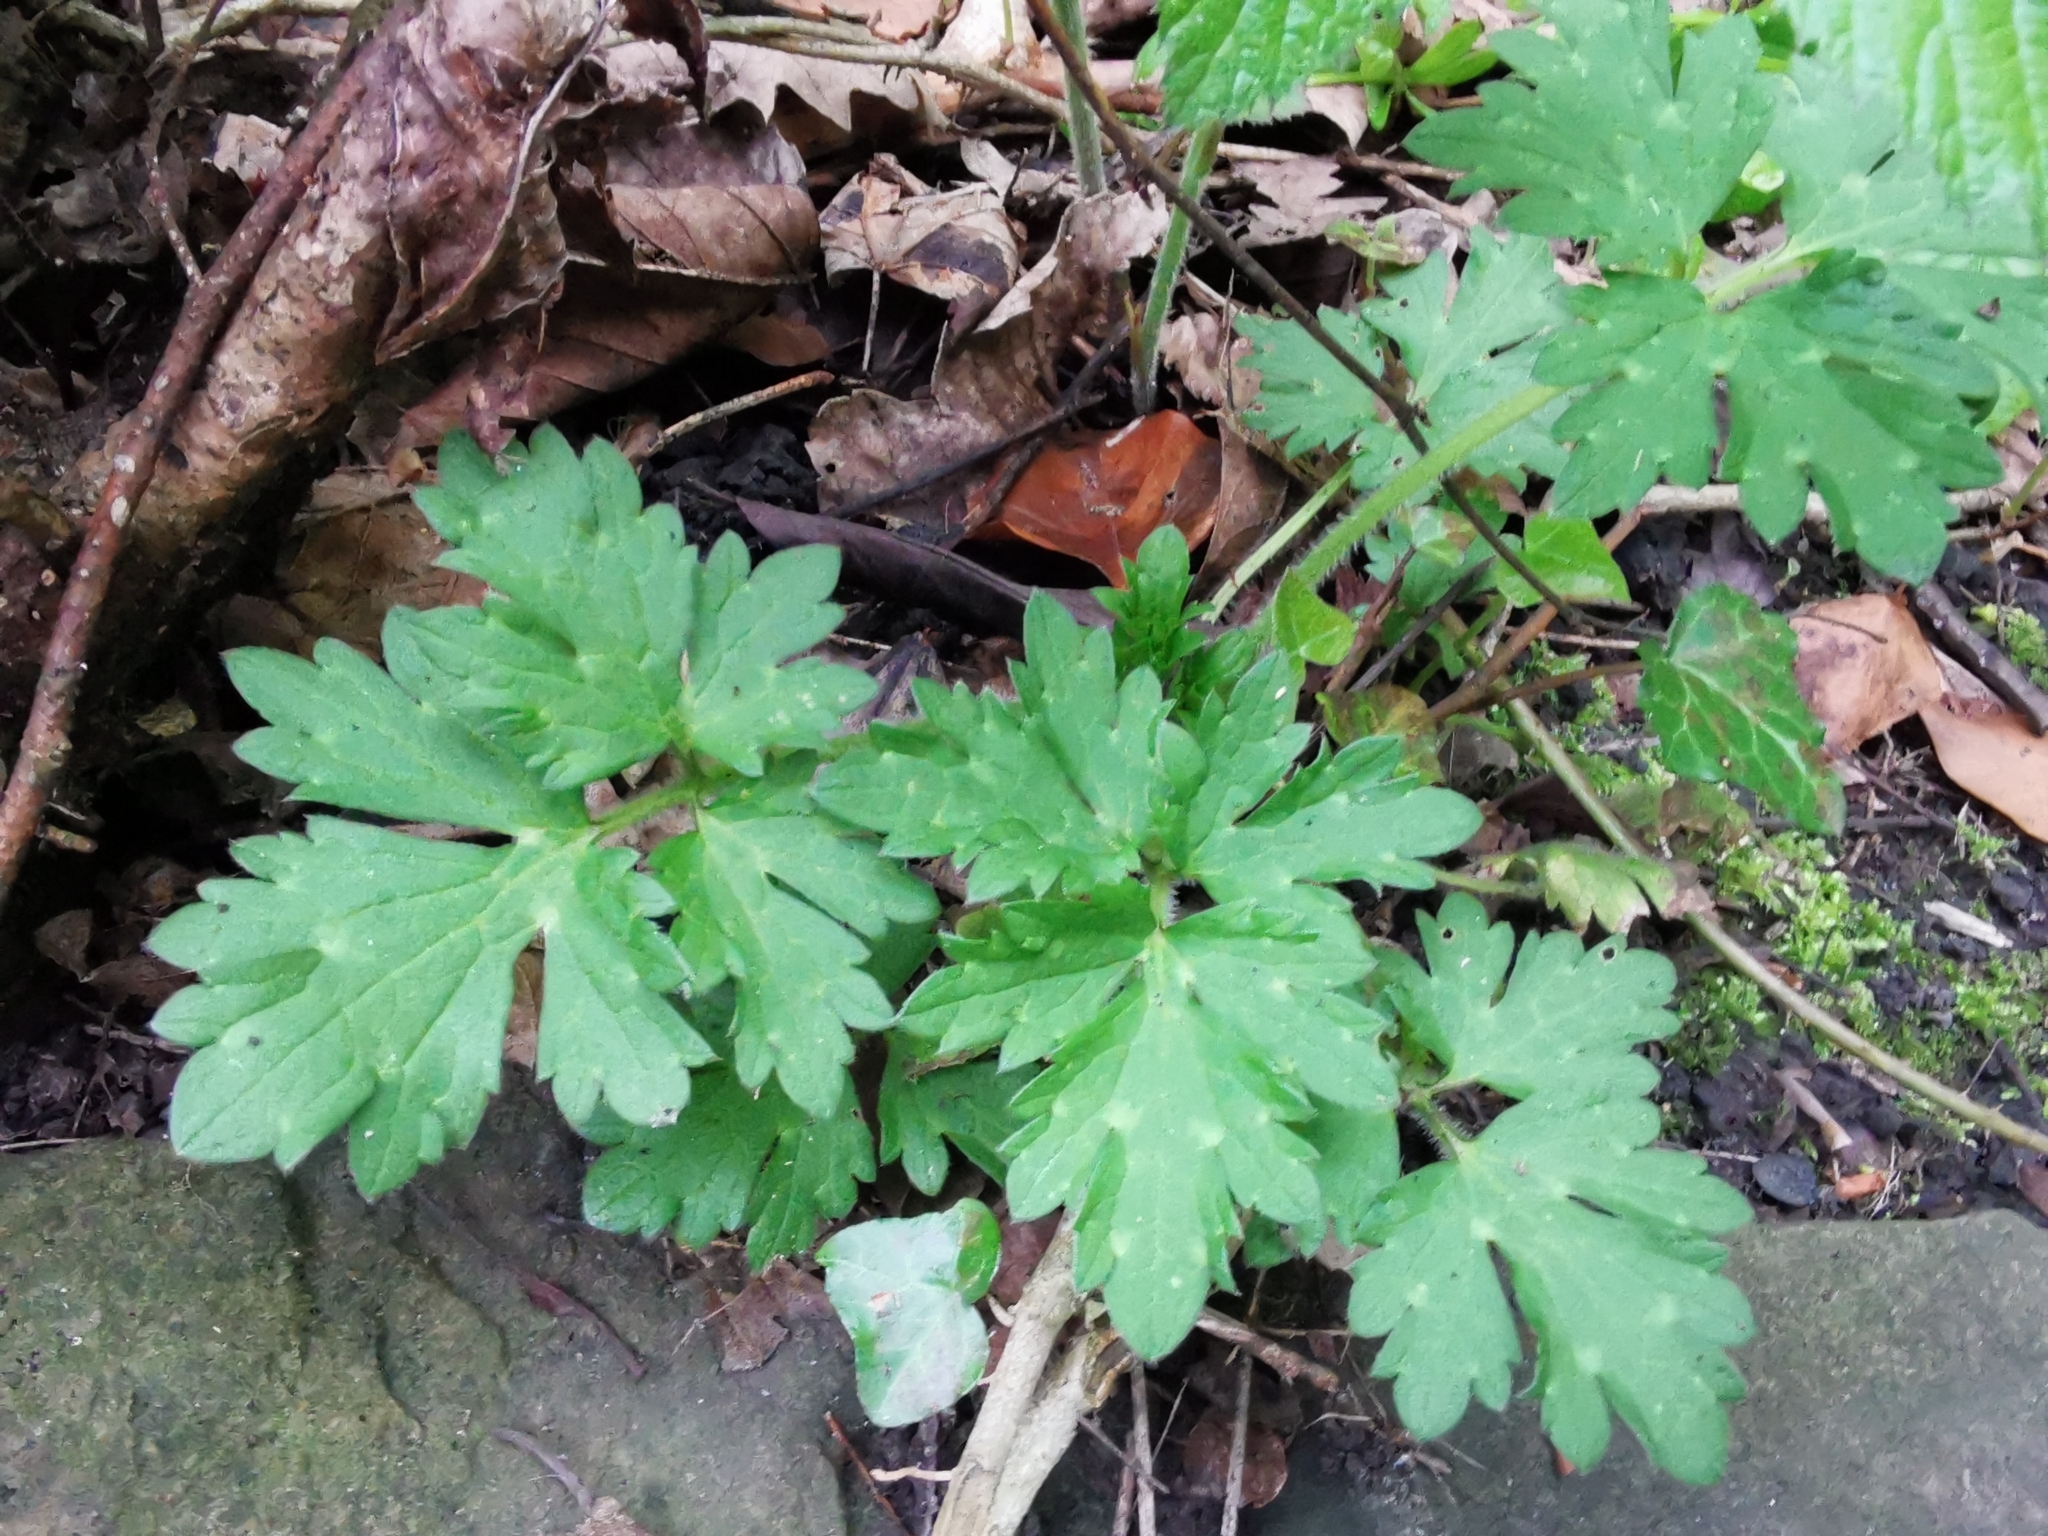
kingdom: Plantae
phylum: Tracheophyta
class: Magnoliopsida
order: Ranunculales
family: Ranunculaceae
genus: Ranunculus
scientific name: Ranunculus repens
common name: Creeping buttercup
